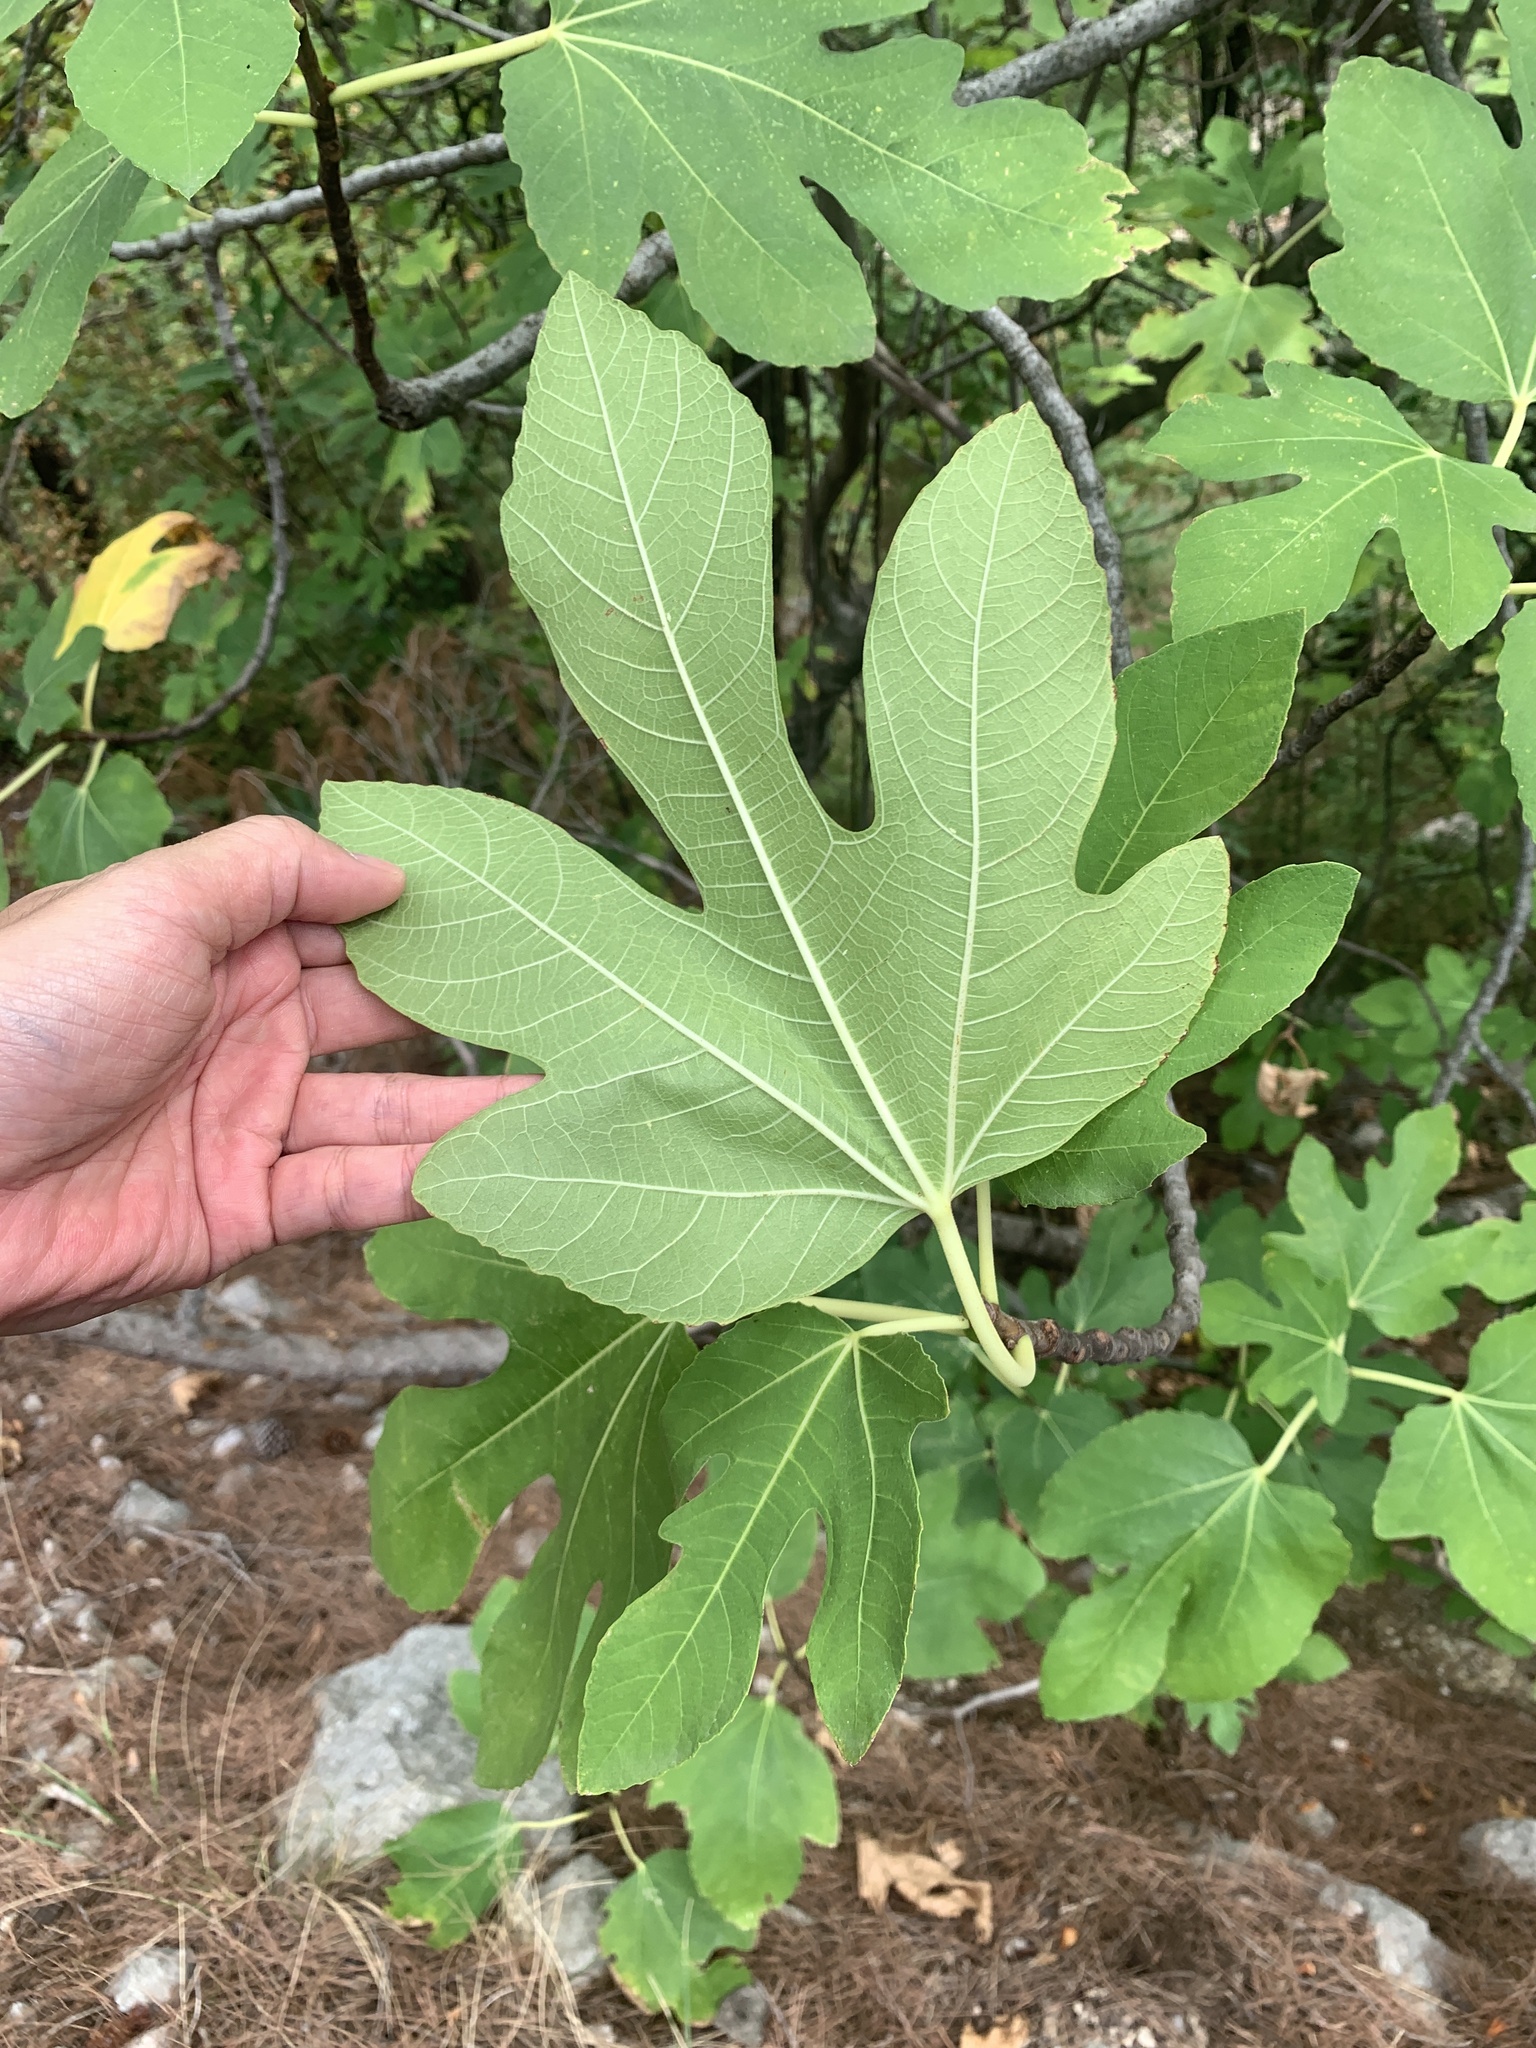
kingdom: Plantae
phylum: Tracheophyta
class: Magnoliopsida
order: Rosales
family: Moraceae
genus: Ficus
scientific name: Ficus carica
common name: Fig
